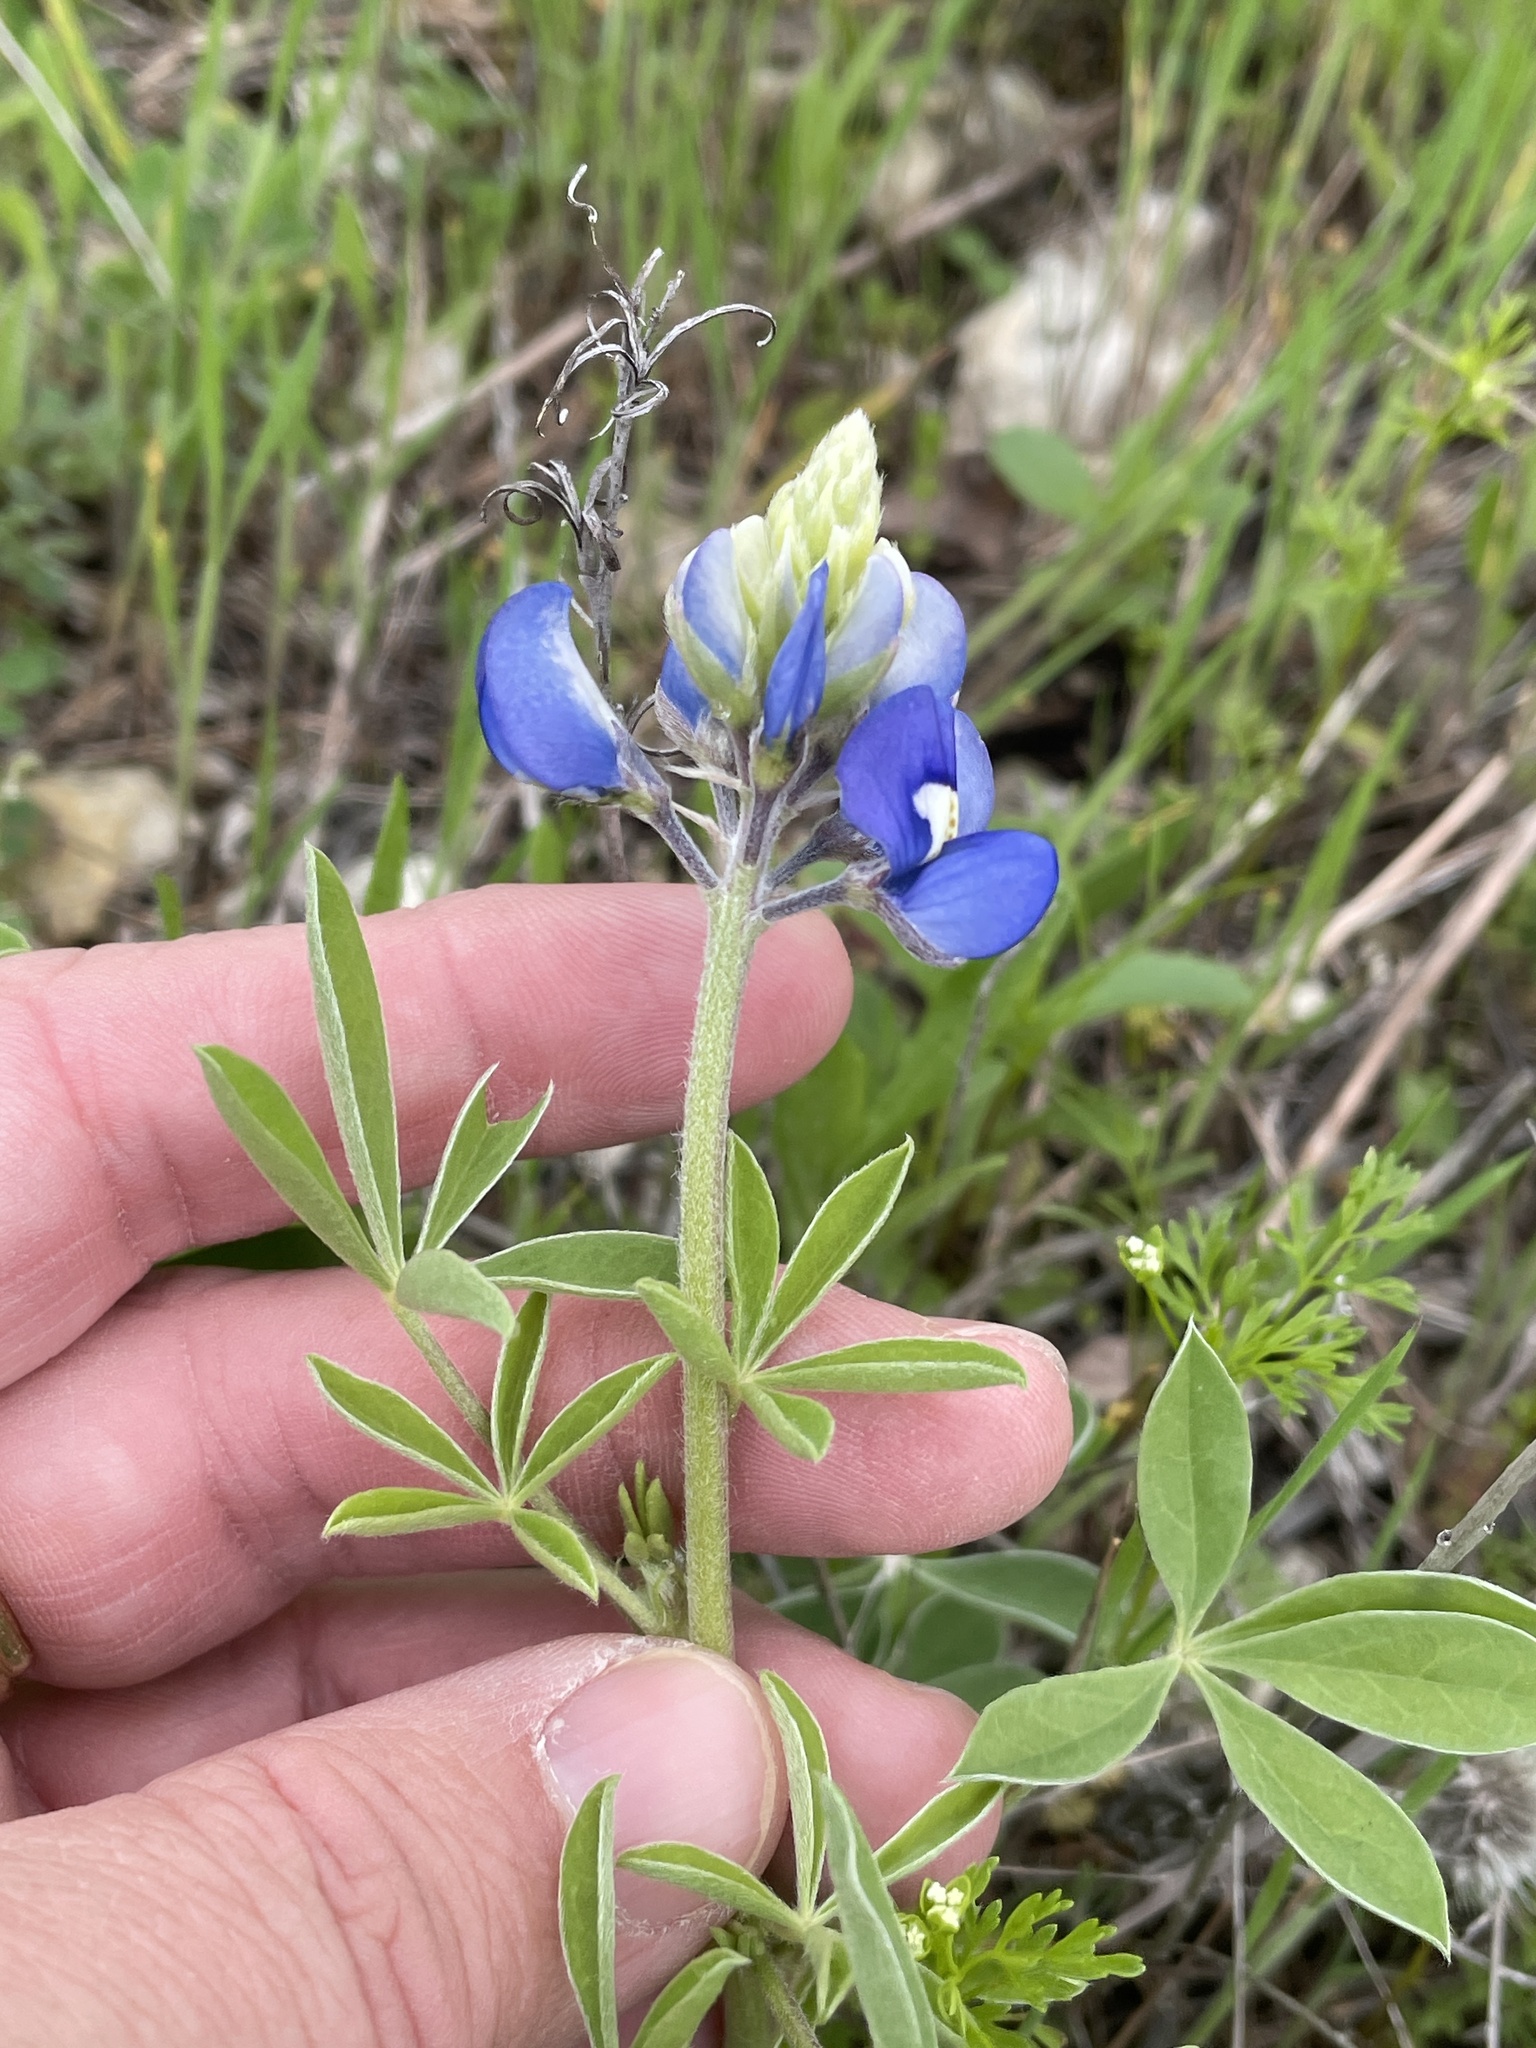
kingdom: Plantae
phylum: Tracheophyta
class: Magnoliopsida
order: Fabales
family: Fabaceae
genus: Lupinus
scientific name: Lupinus texensis
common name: Texas bluebonnet
